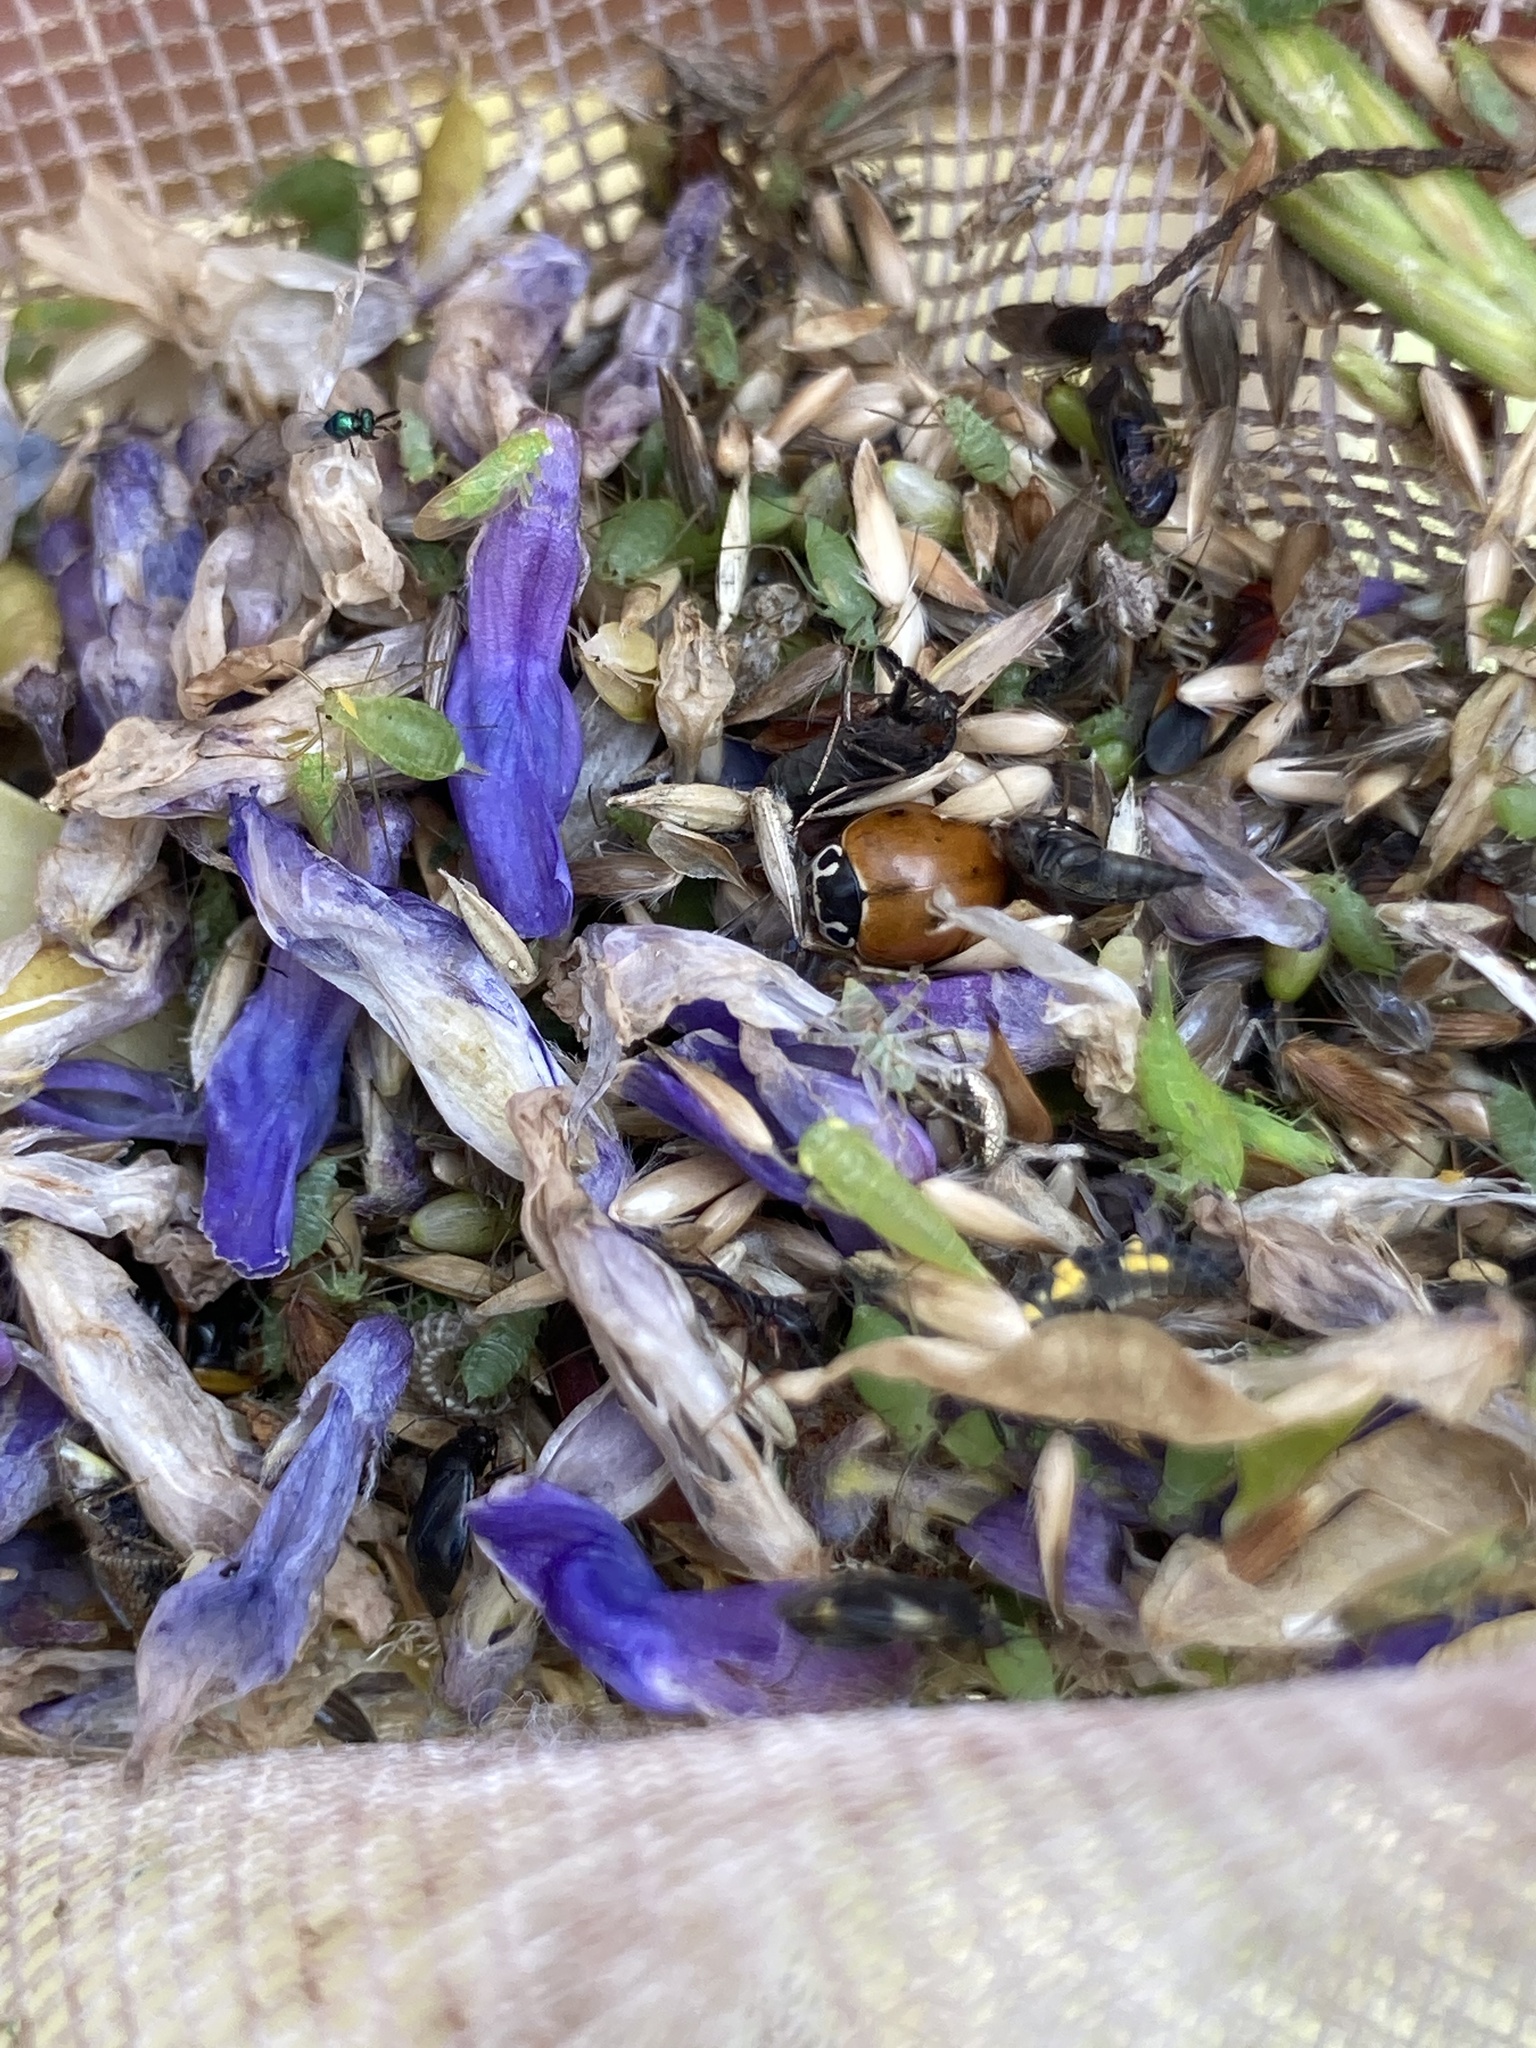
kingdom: Animalia
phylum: Arthropoda
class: Insecta
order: Coleoptera
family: Coccinellidae
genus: Cycloneda
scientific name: Cycloneda munda
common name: Polished lady beetle
